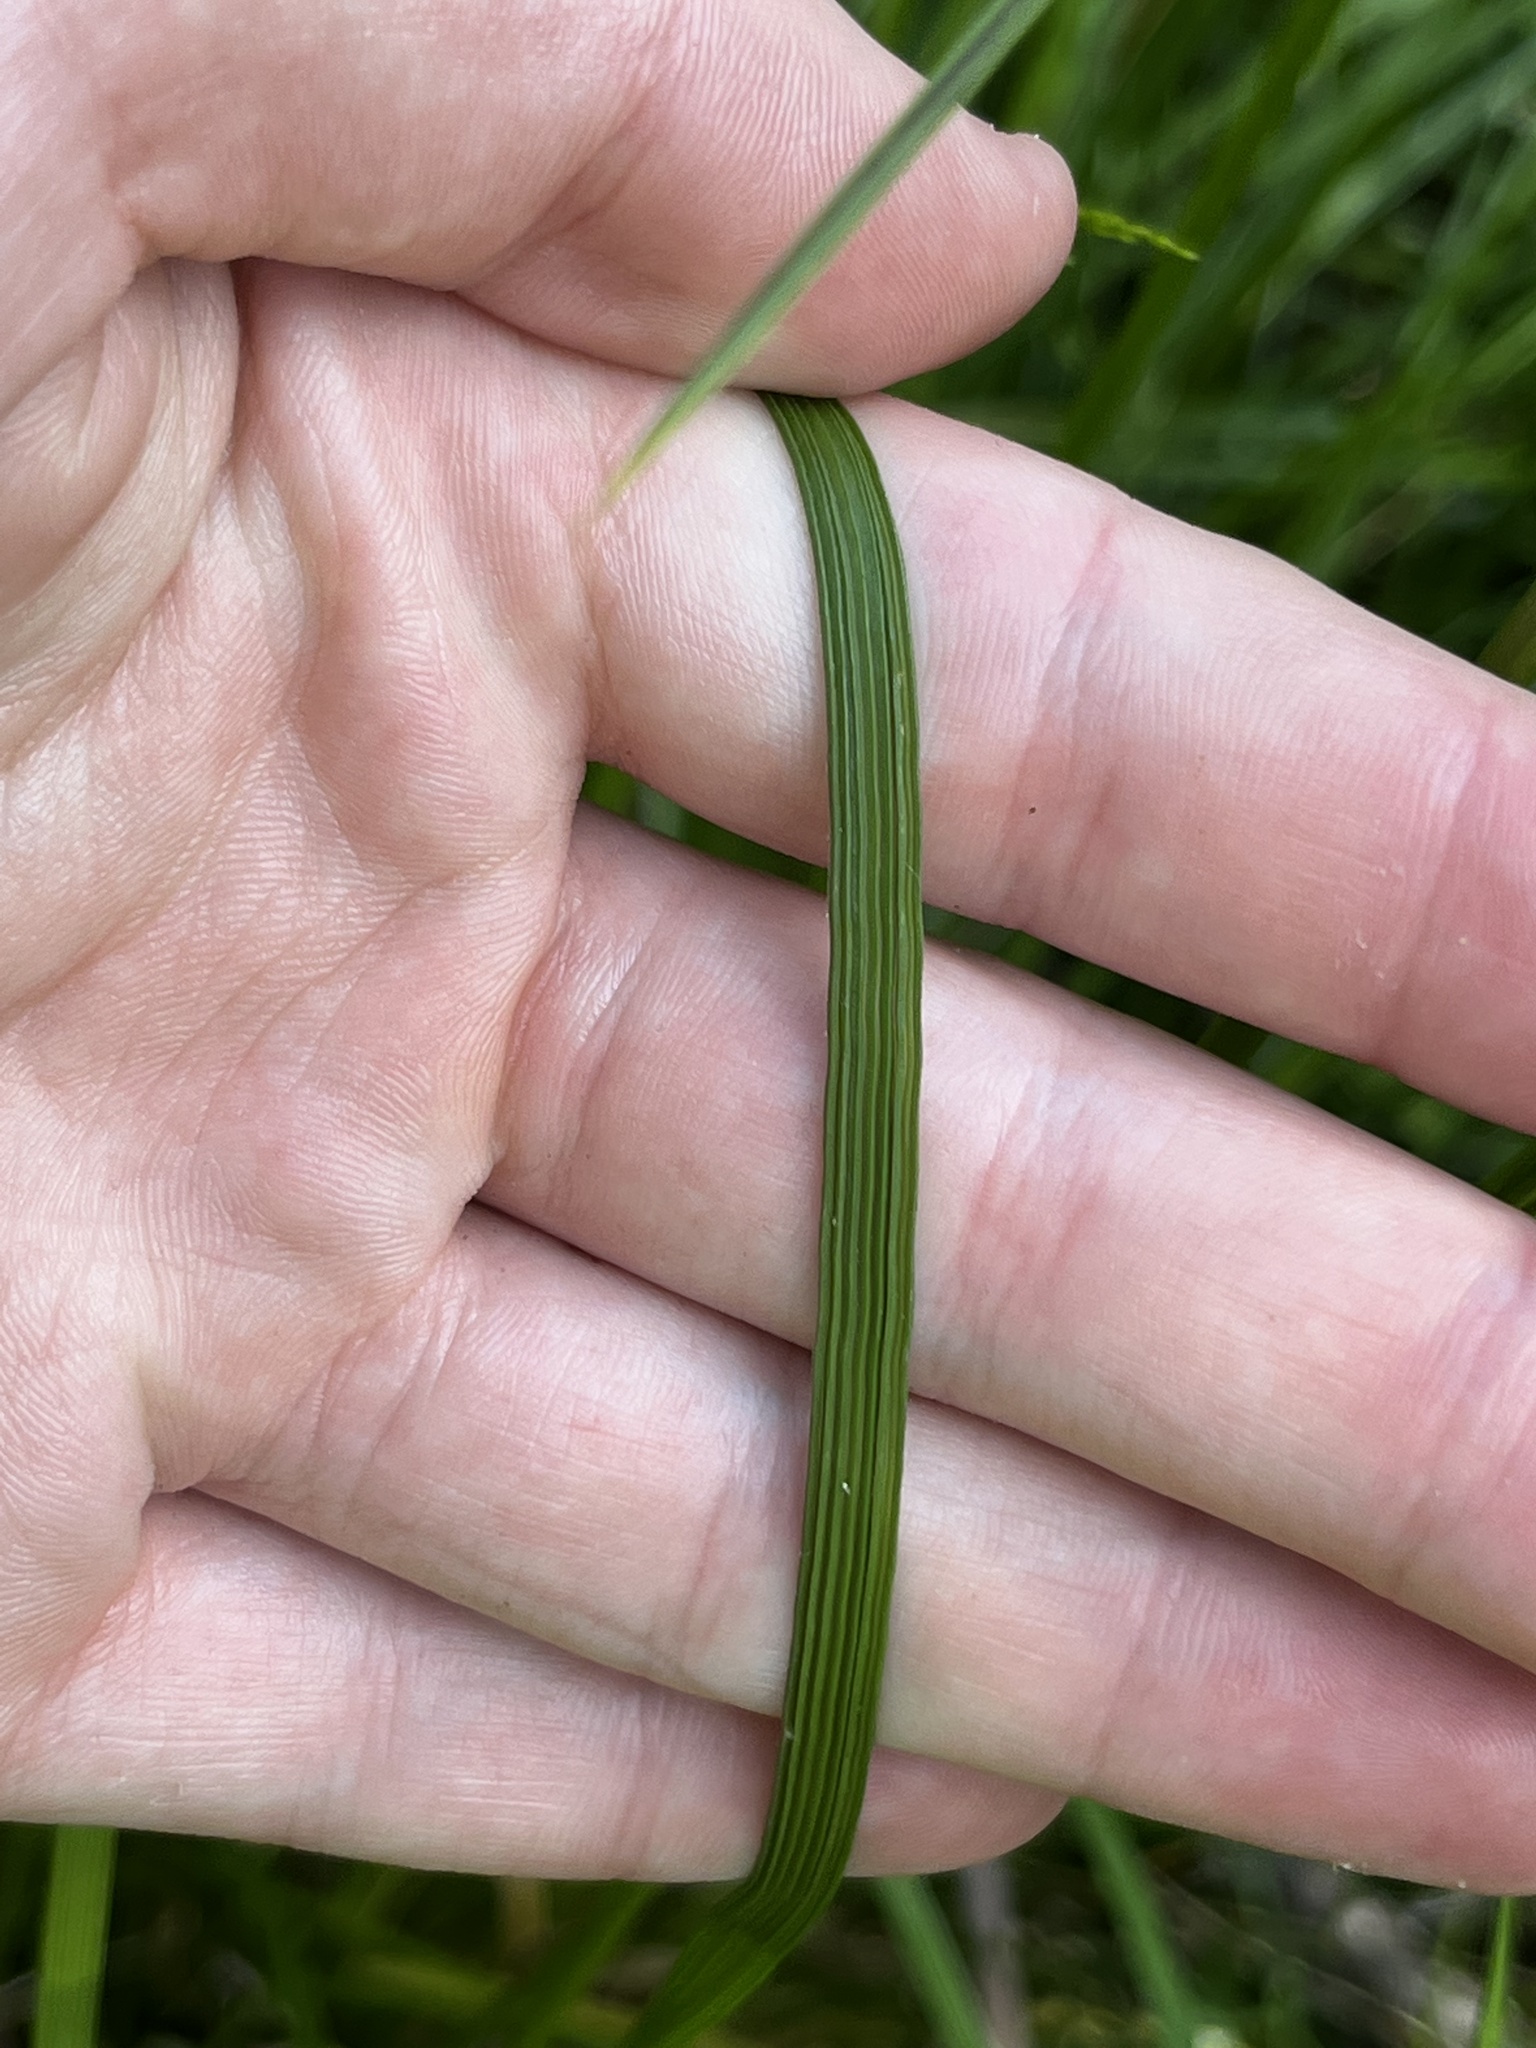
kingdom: Plantae
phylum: Tracheophyta
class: Liliopsida
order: Poales
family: Poaceae
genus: Deschampsia
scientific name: Deschampsia cespitosa
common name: Tufted hair-grass
